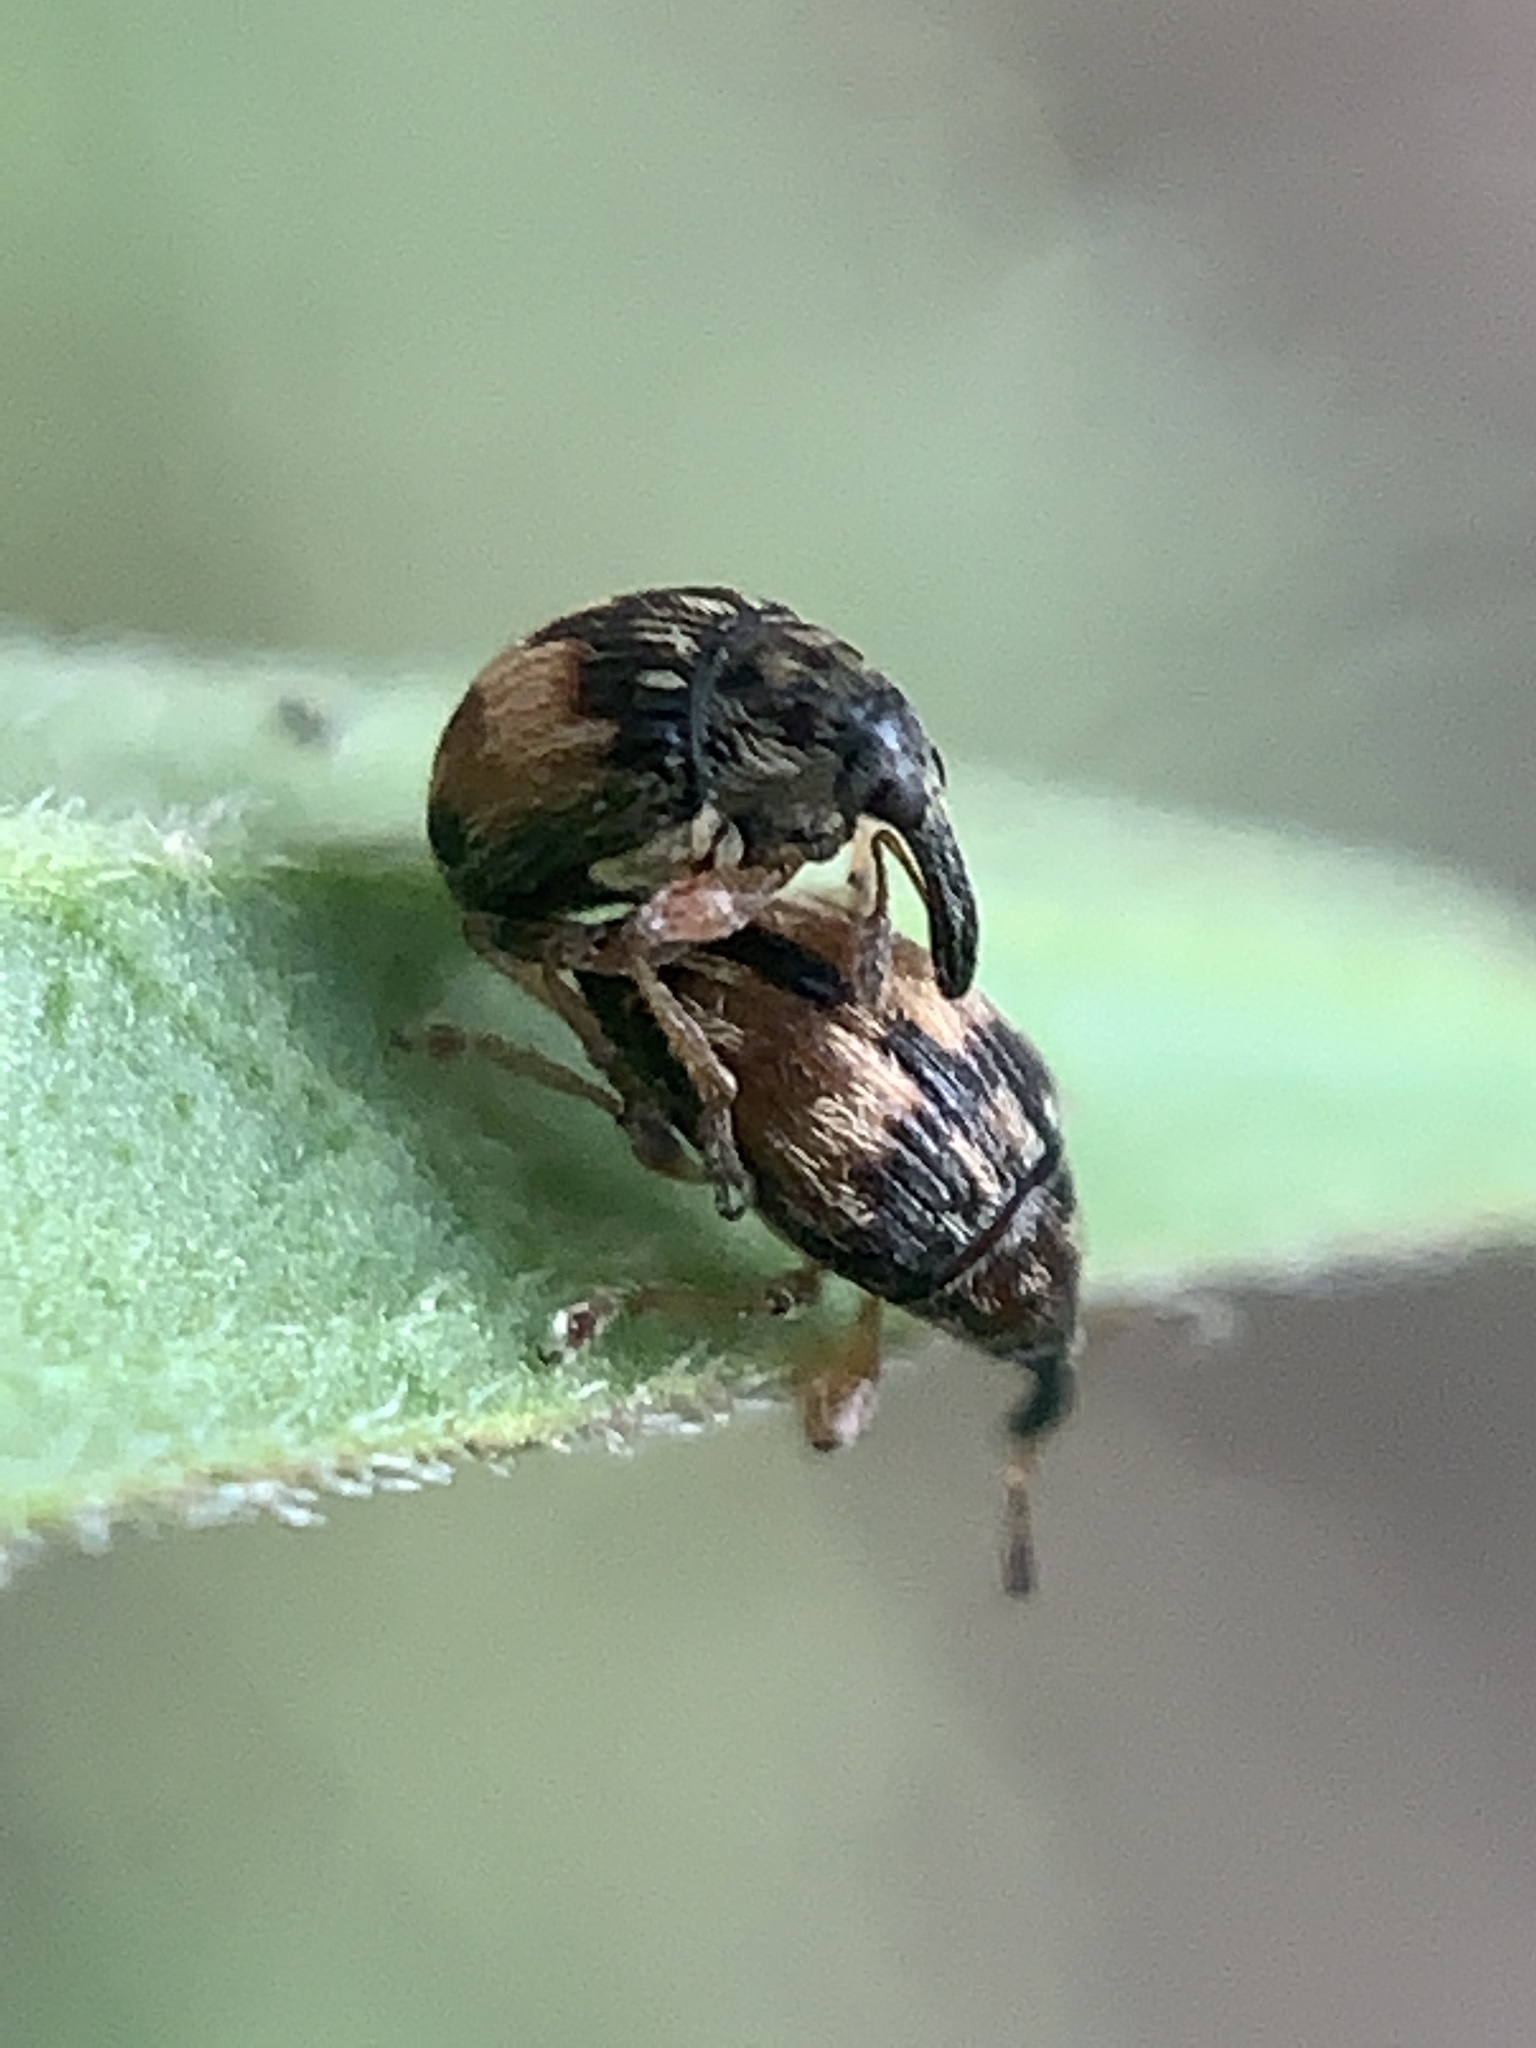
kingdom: Animalia
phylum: Arthropoda
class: Insecta
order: Coleoptera
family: Brentidae
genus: Nanophyes
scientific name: Nanophyes marmoratus
